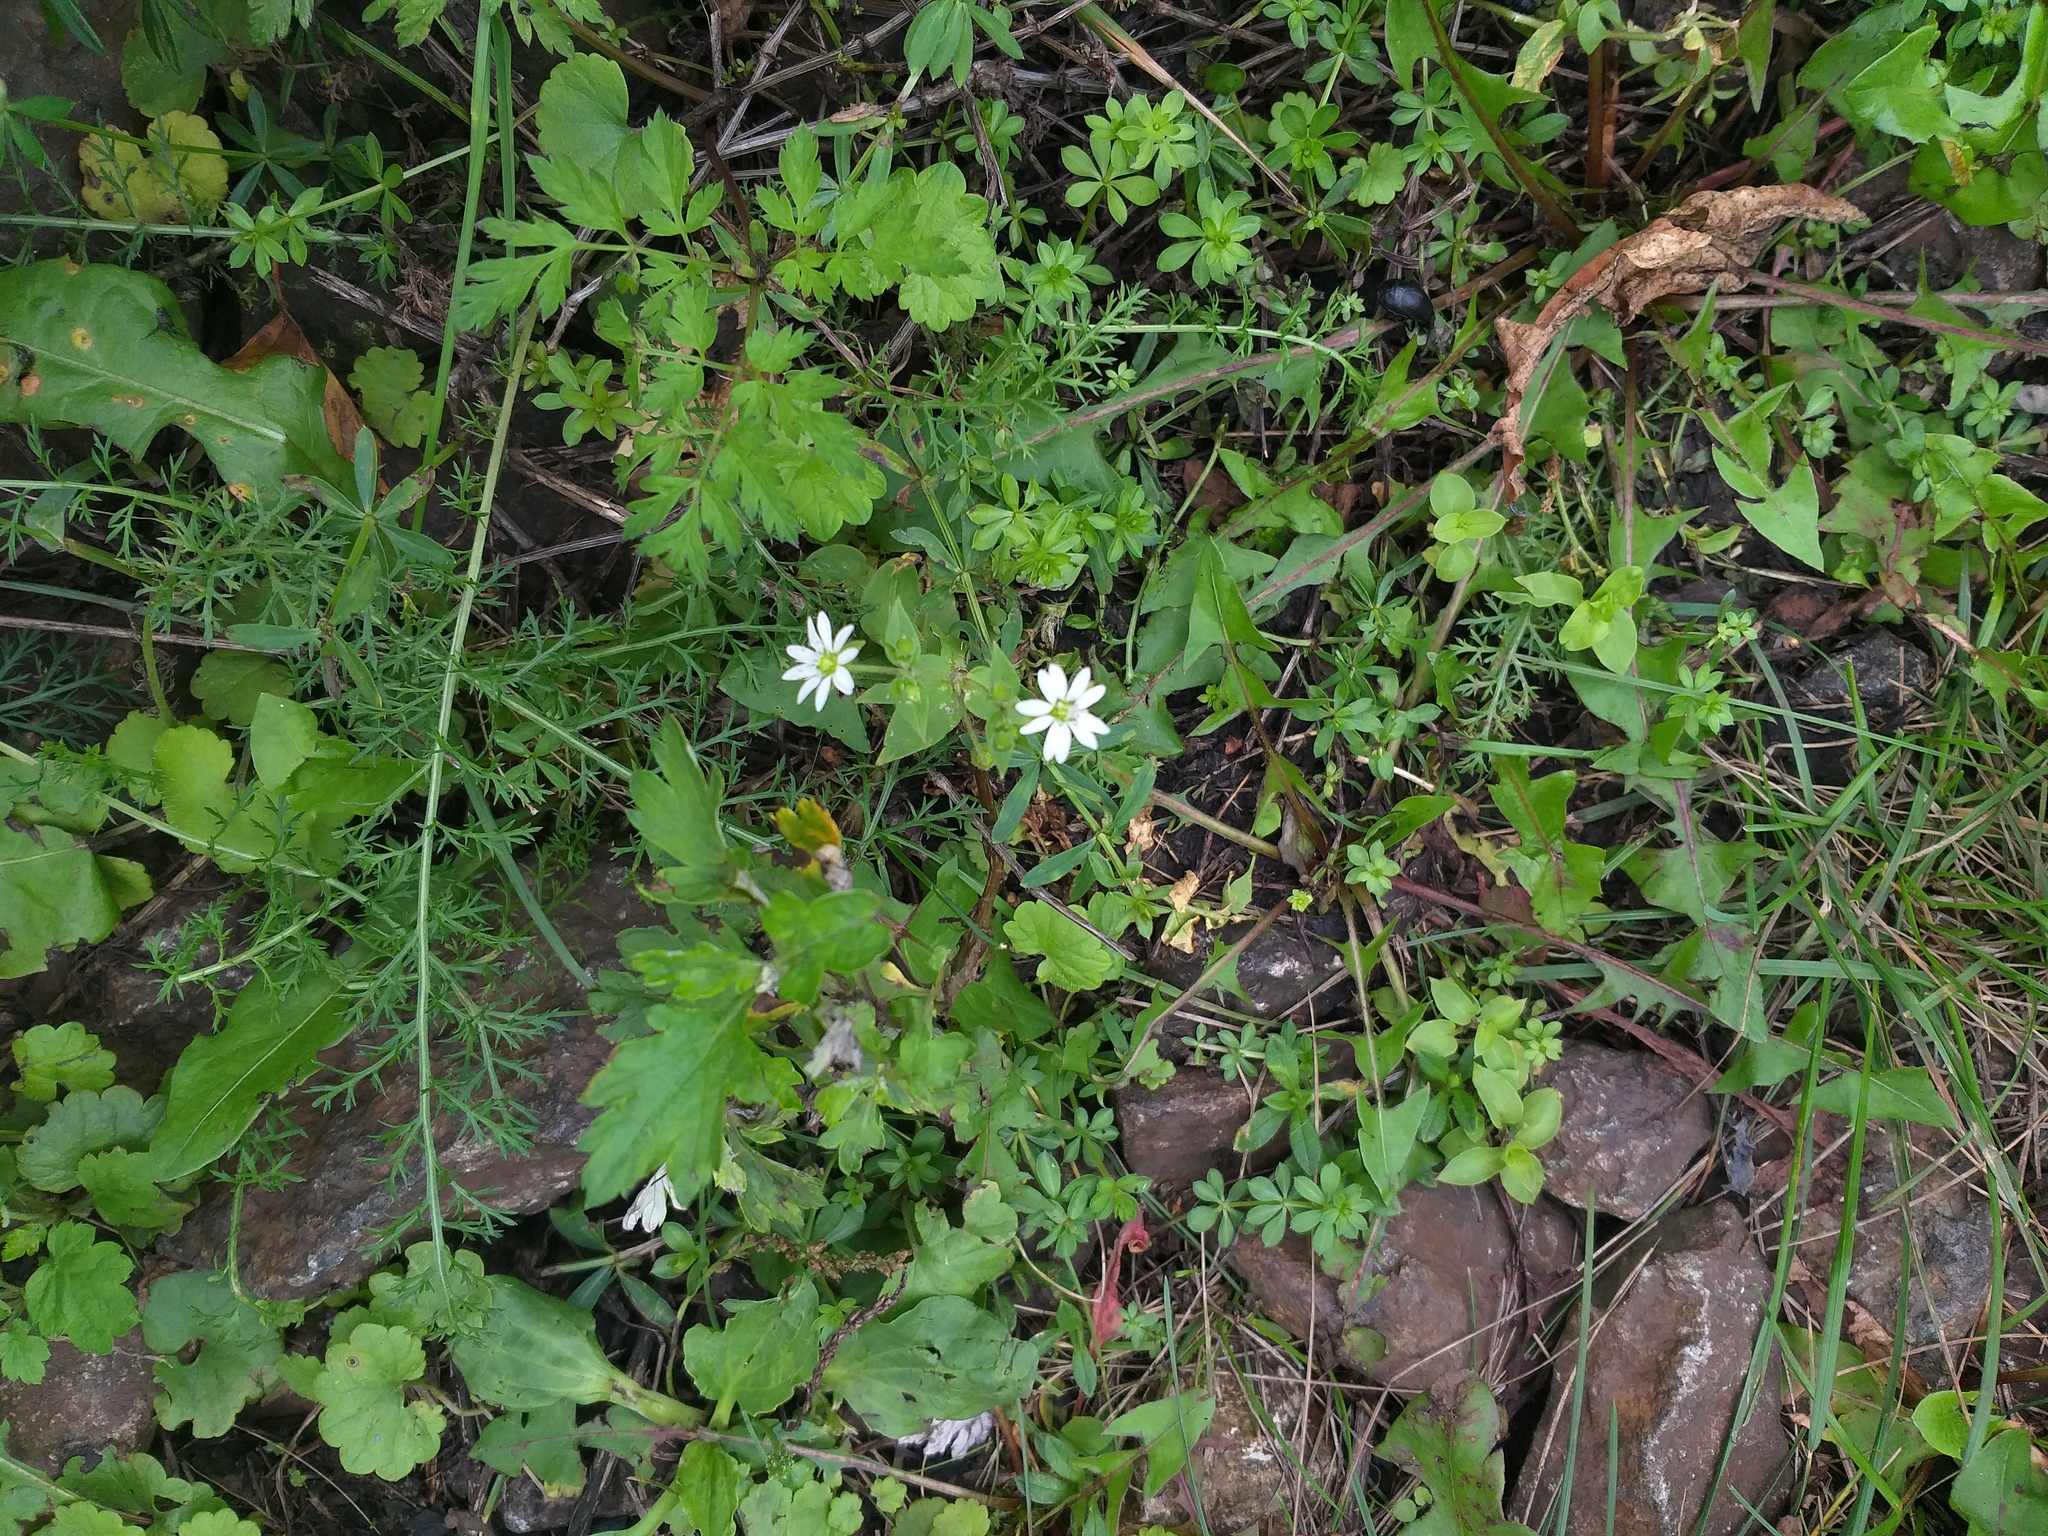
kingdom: Plantae
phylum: Tracheophyta
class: Magnoliopsida
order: Caryophyllales
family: Caryophyllaceae
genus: Stellaria
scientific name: Stellaria aquatica
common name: Water chickweed
